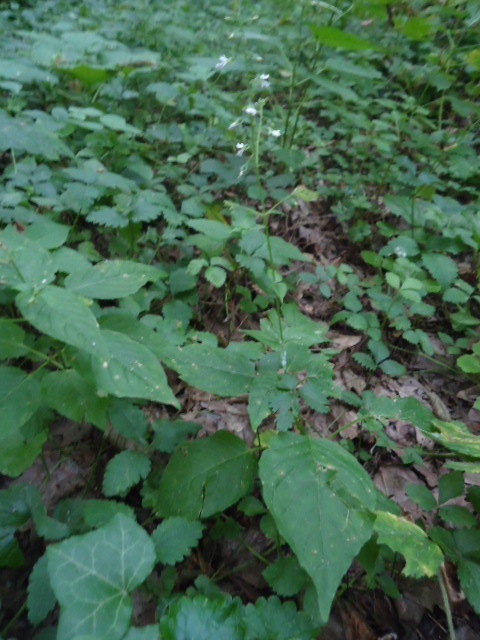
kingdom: Plantae
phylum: Tracheophyta
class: Magnoliopsida
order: Myrtales
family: Onagraceae
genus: Circaea
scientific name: Circaea lutetiana
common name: Enchanter's-nightshade
